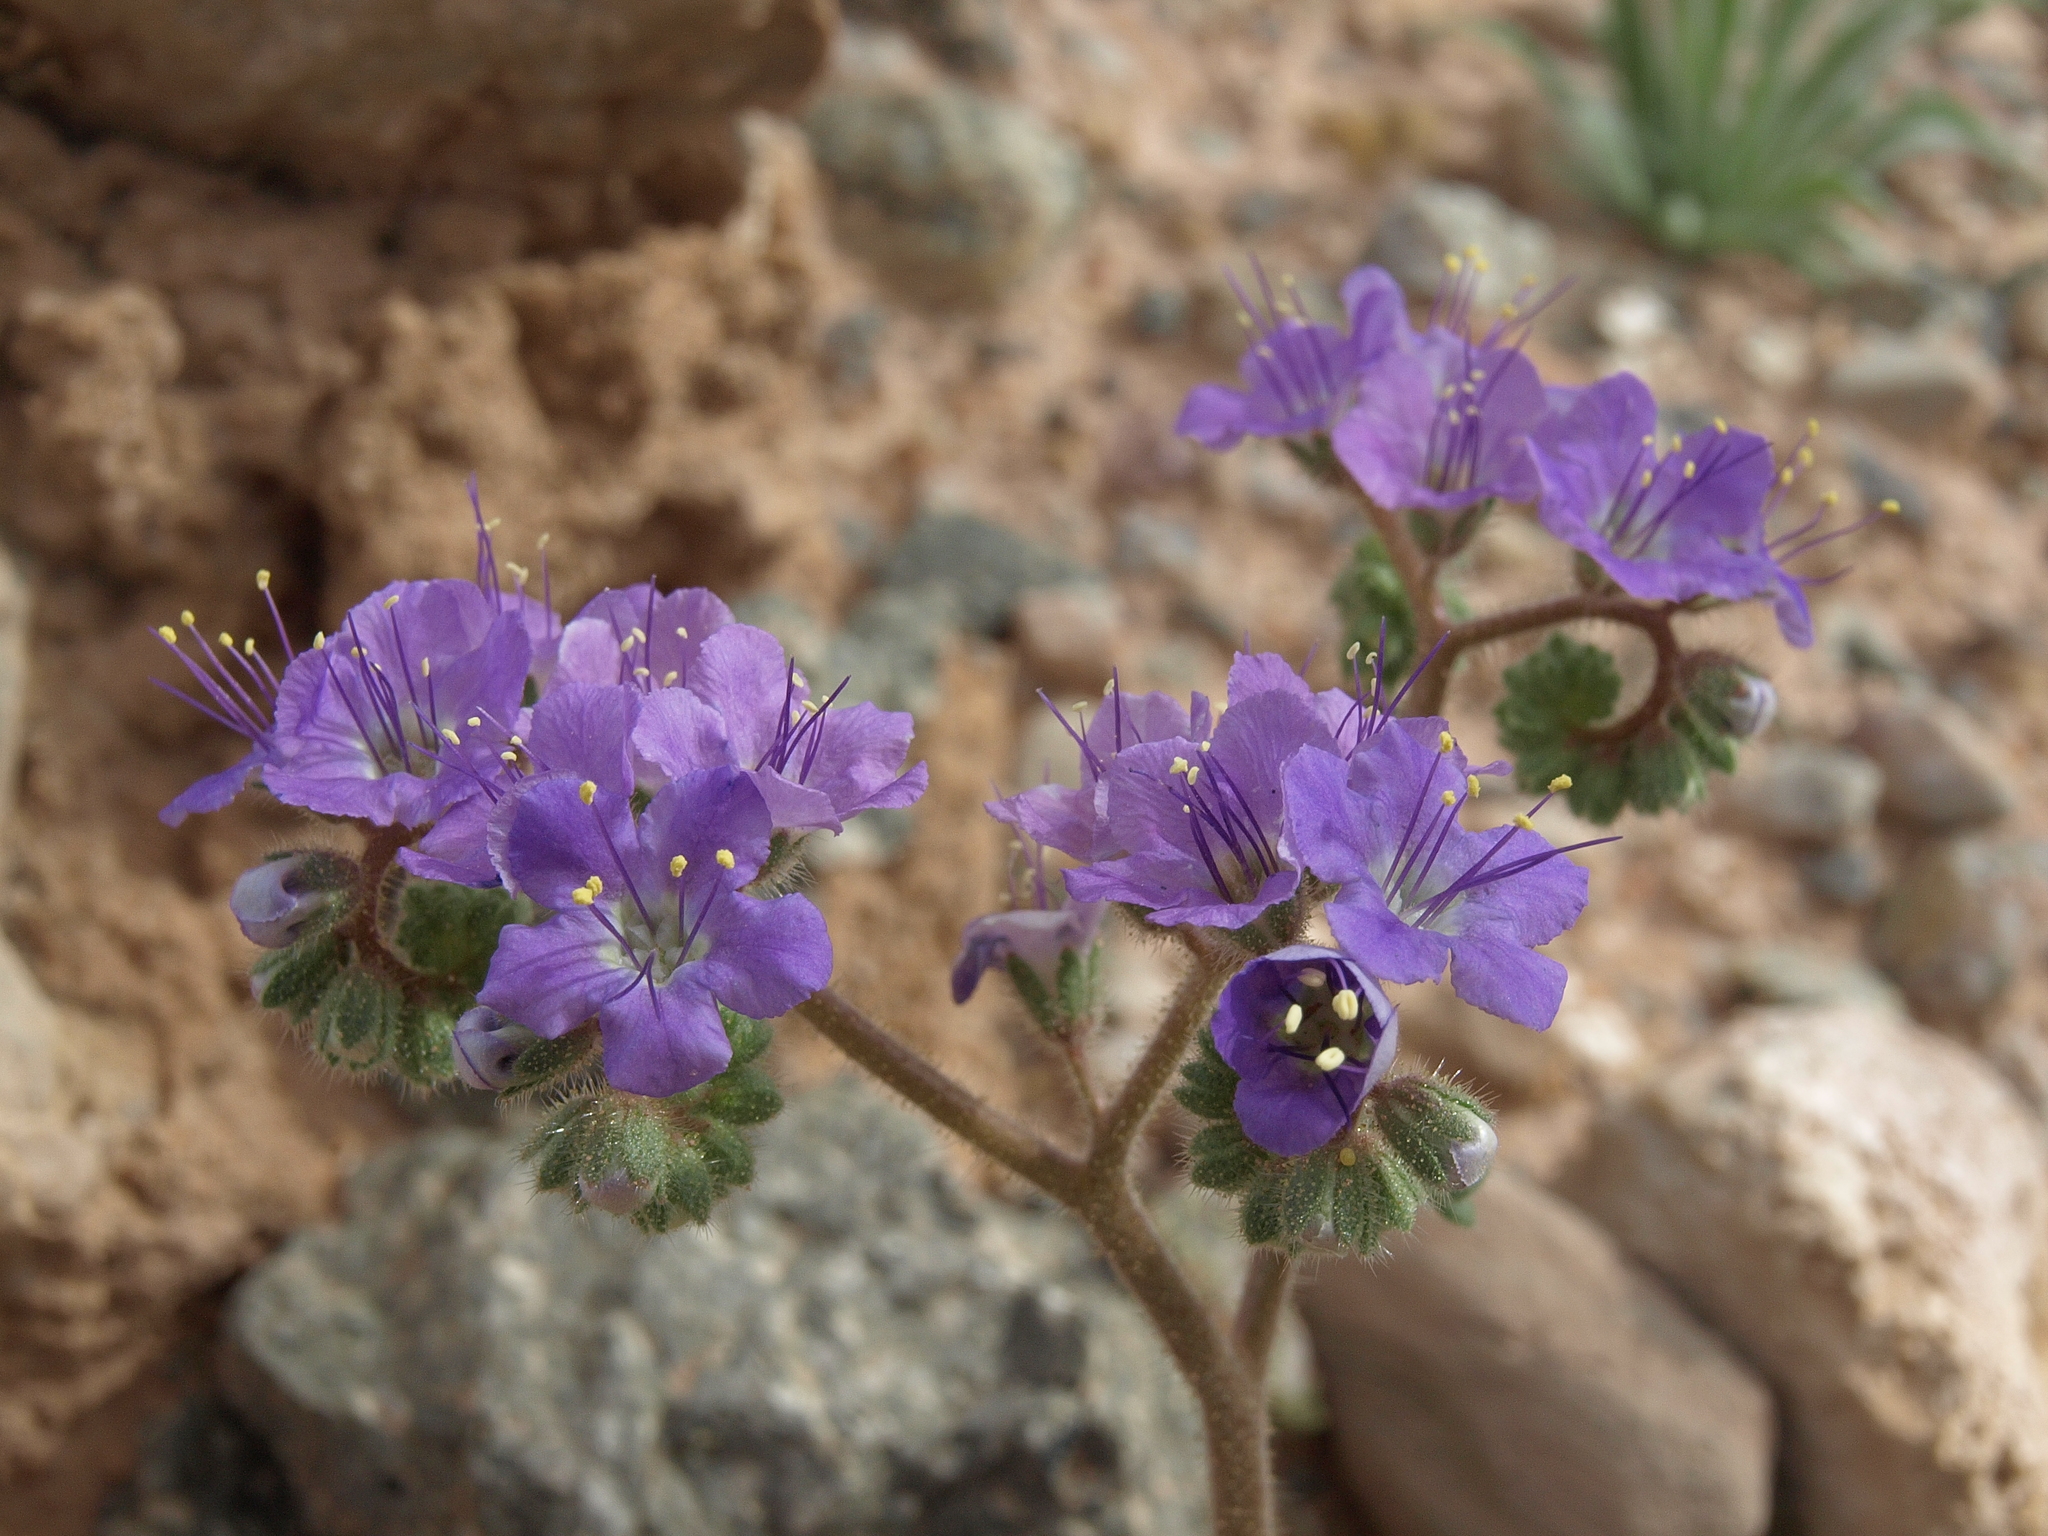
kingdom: Plantae
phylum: Tracheophyta
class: Magnoliopsida
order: Boraginales
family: Hydrophyllaceae
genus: Phacelia
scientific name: Phacelia crenulata
